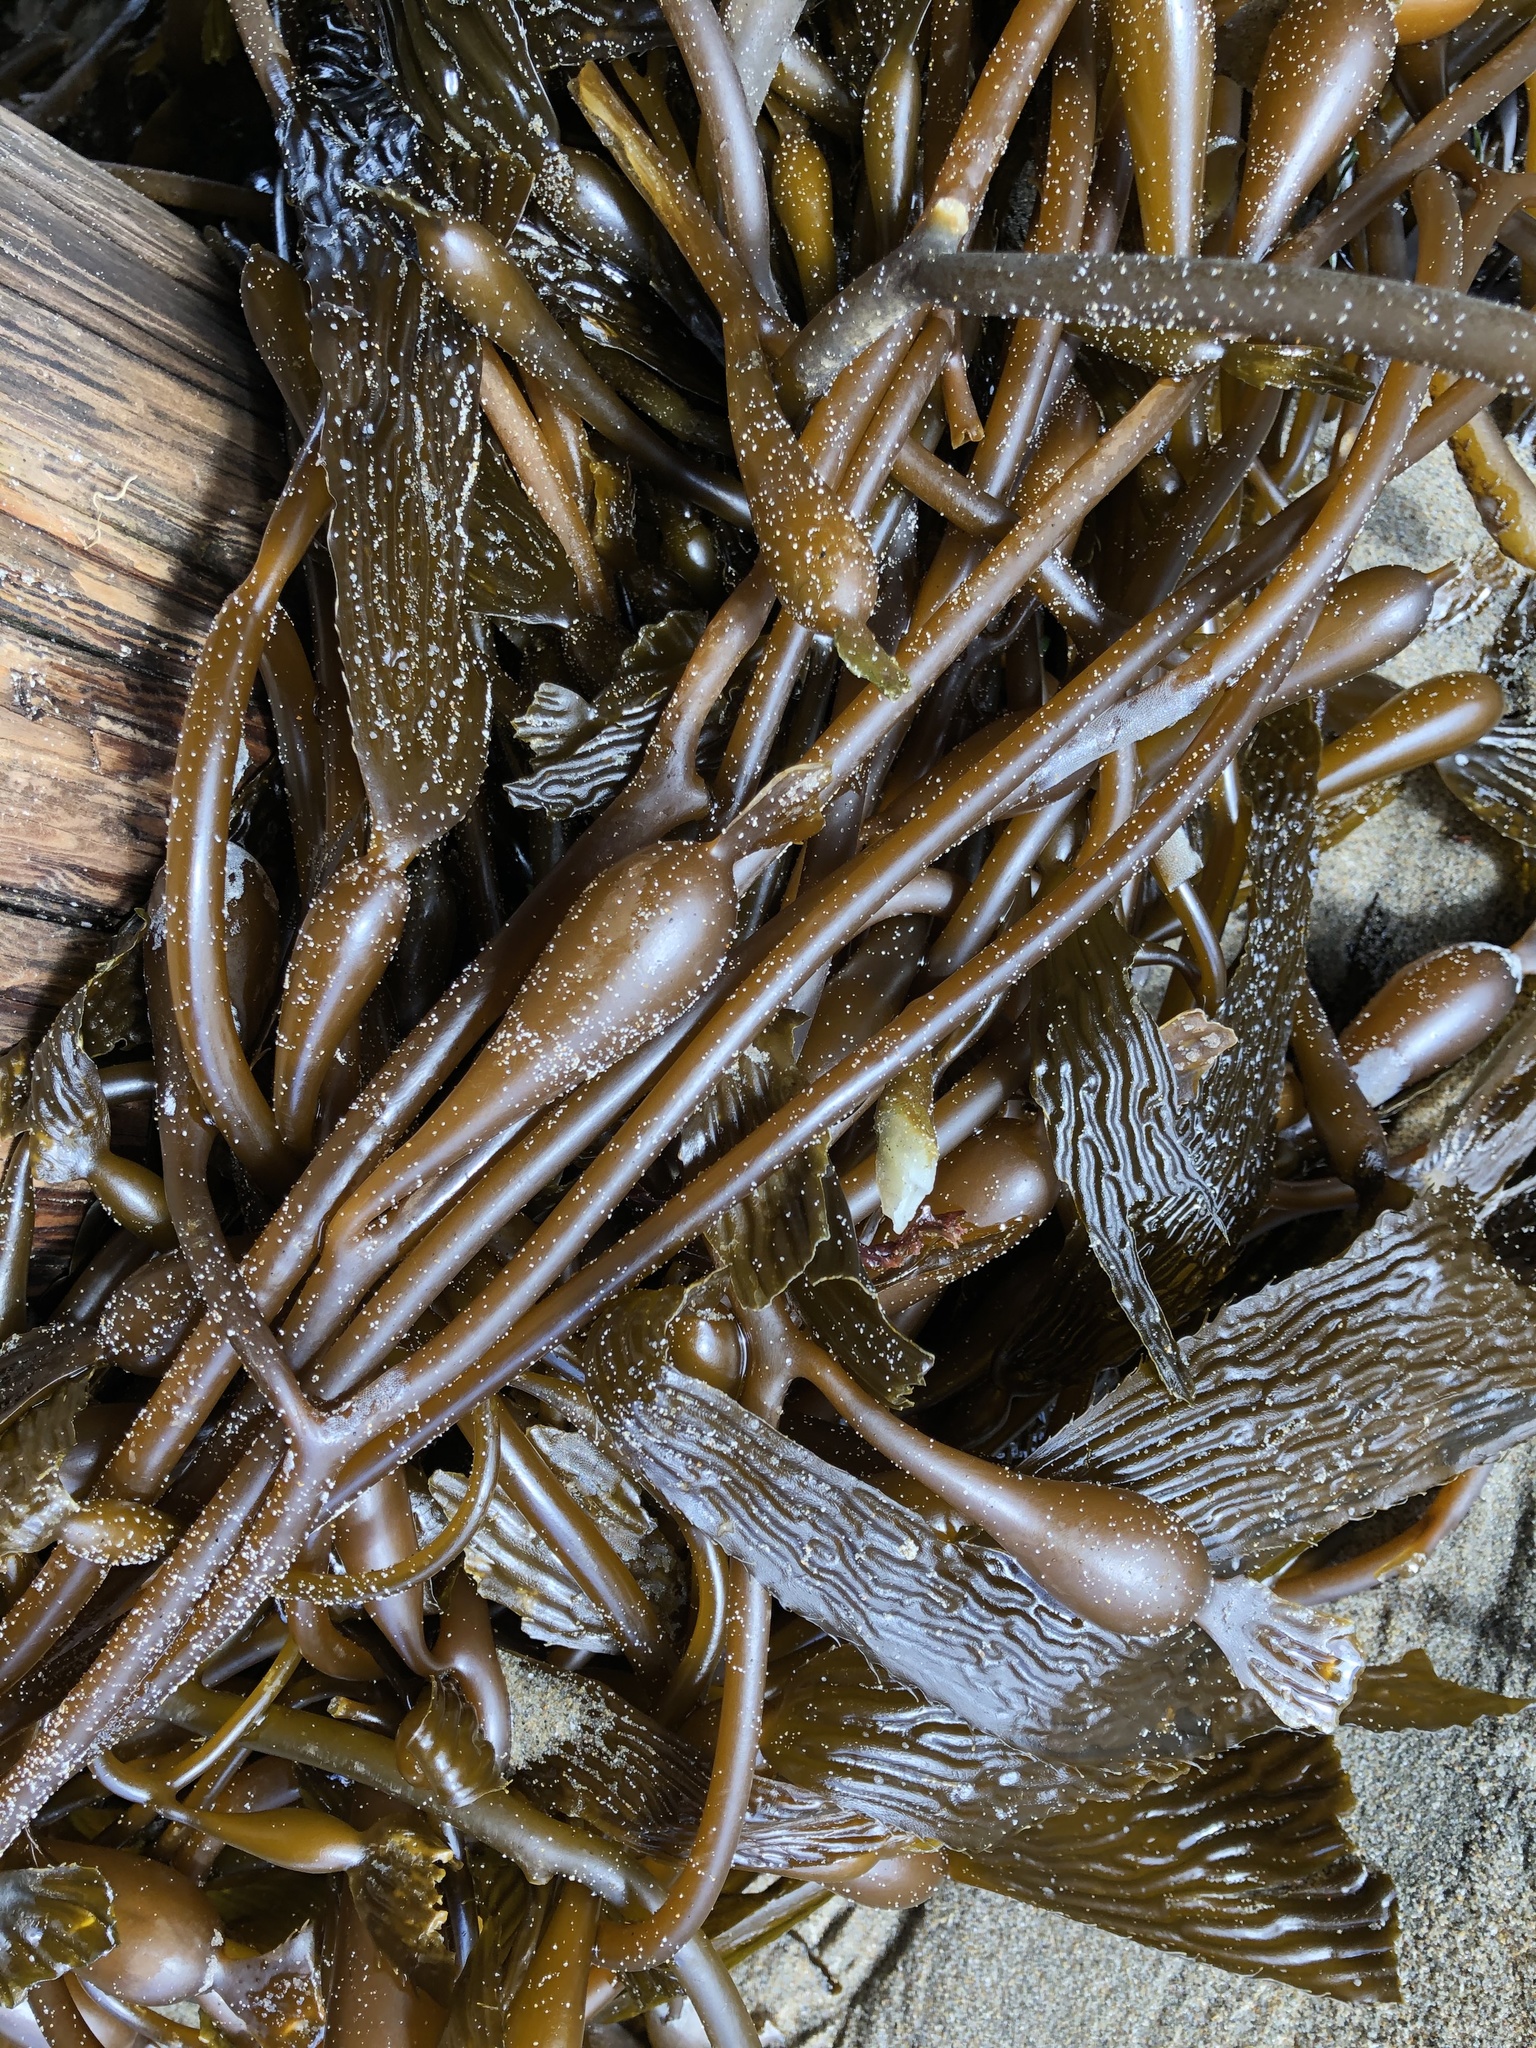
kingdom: Chromista
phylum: Ochrophyta
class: Phaeophyceae
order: Laminariales
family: Laminariaceae
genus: Macrocystis
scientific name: Macrocystis pyrifera
